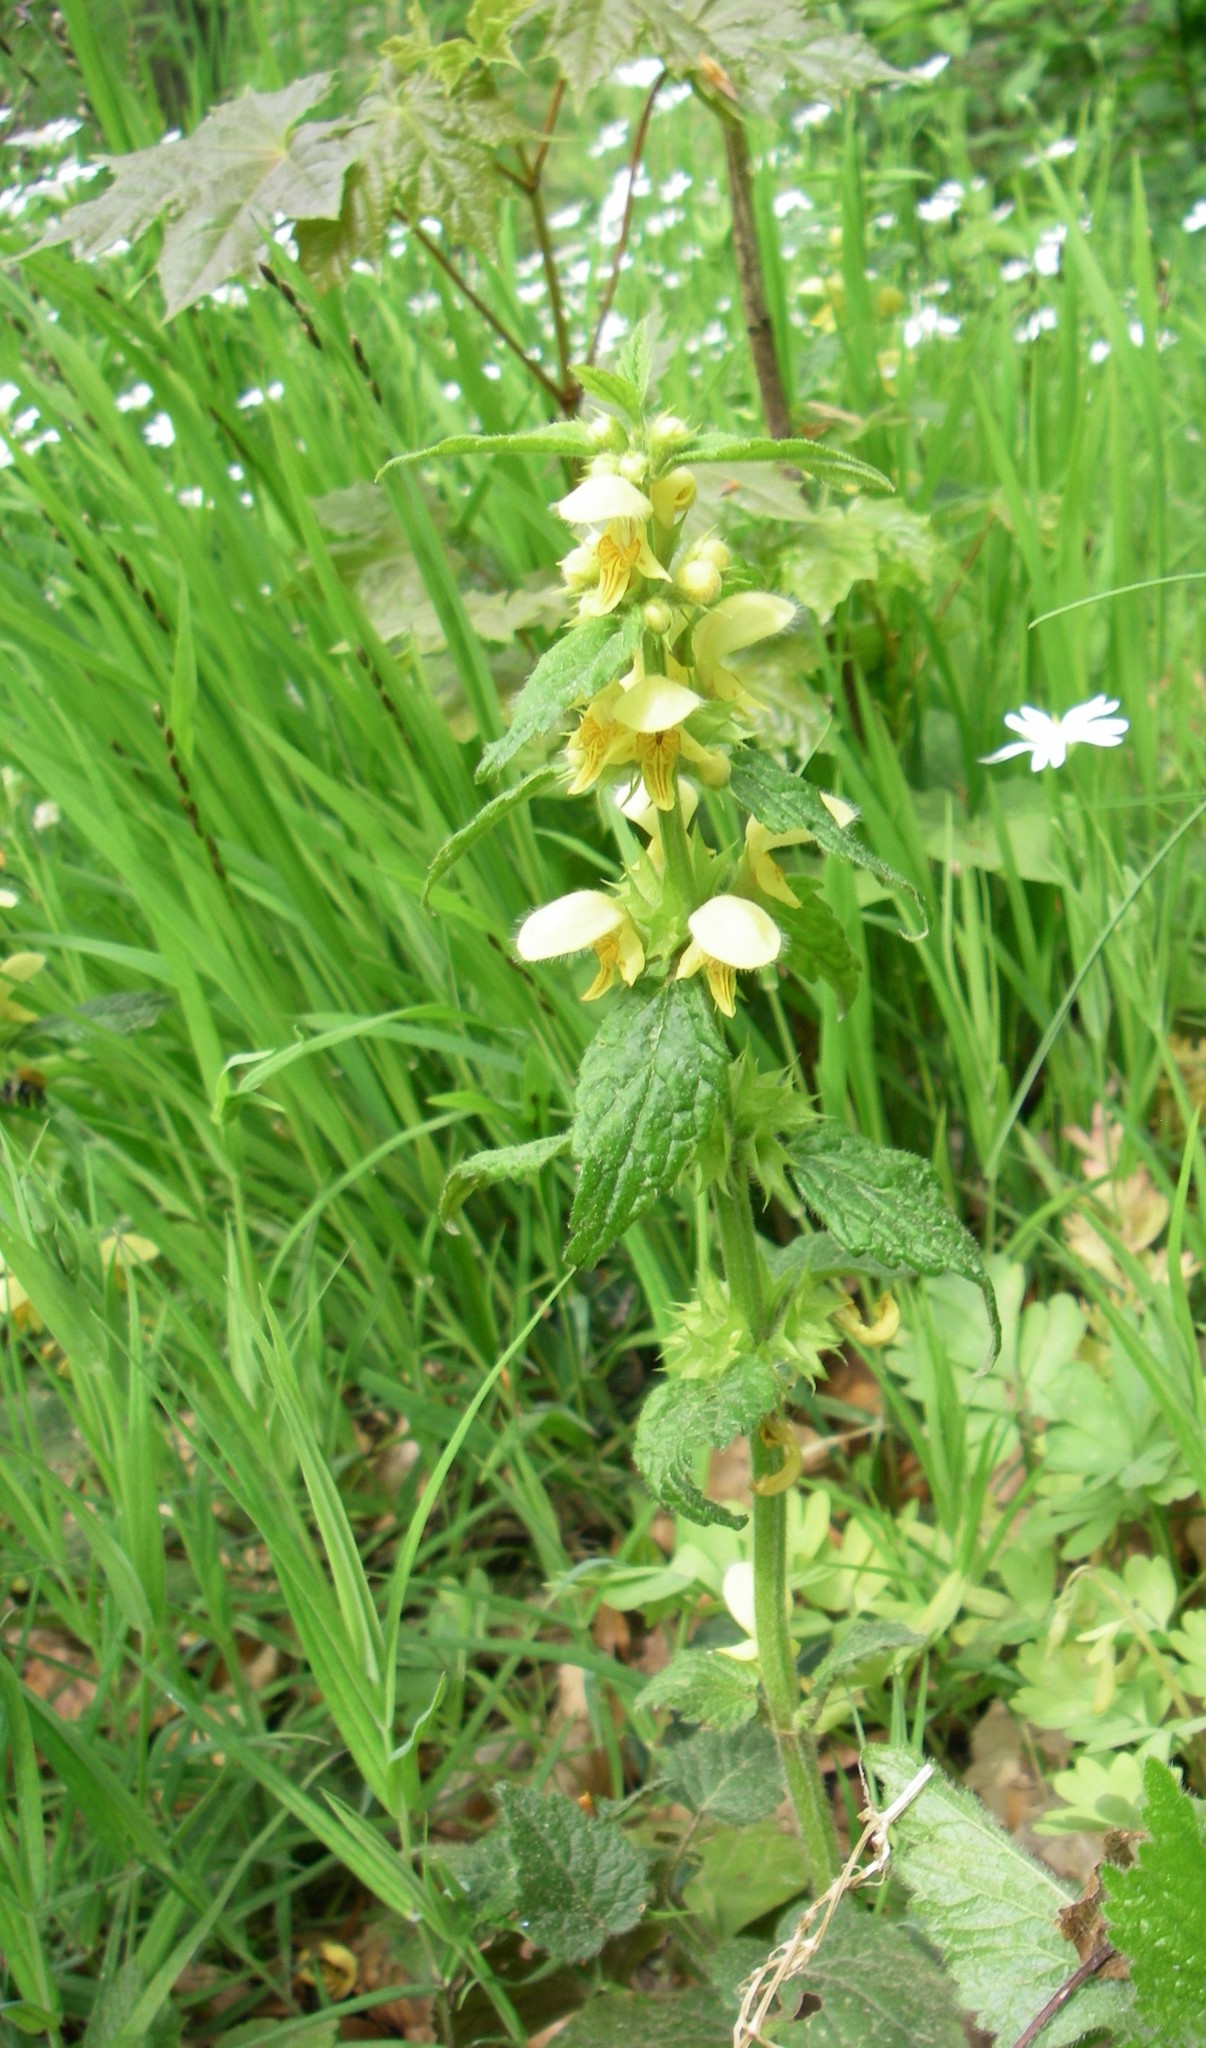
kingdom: Plantae
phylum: Tracheophyta
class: Magnoliopsida
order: Lamiales
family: Lamiaceae
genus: Lamium
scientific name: Lamium galeobdolon
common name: Yellow archangel
